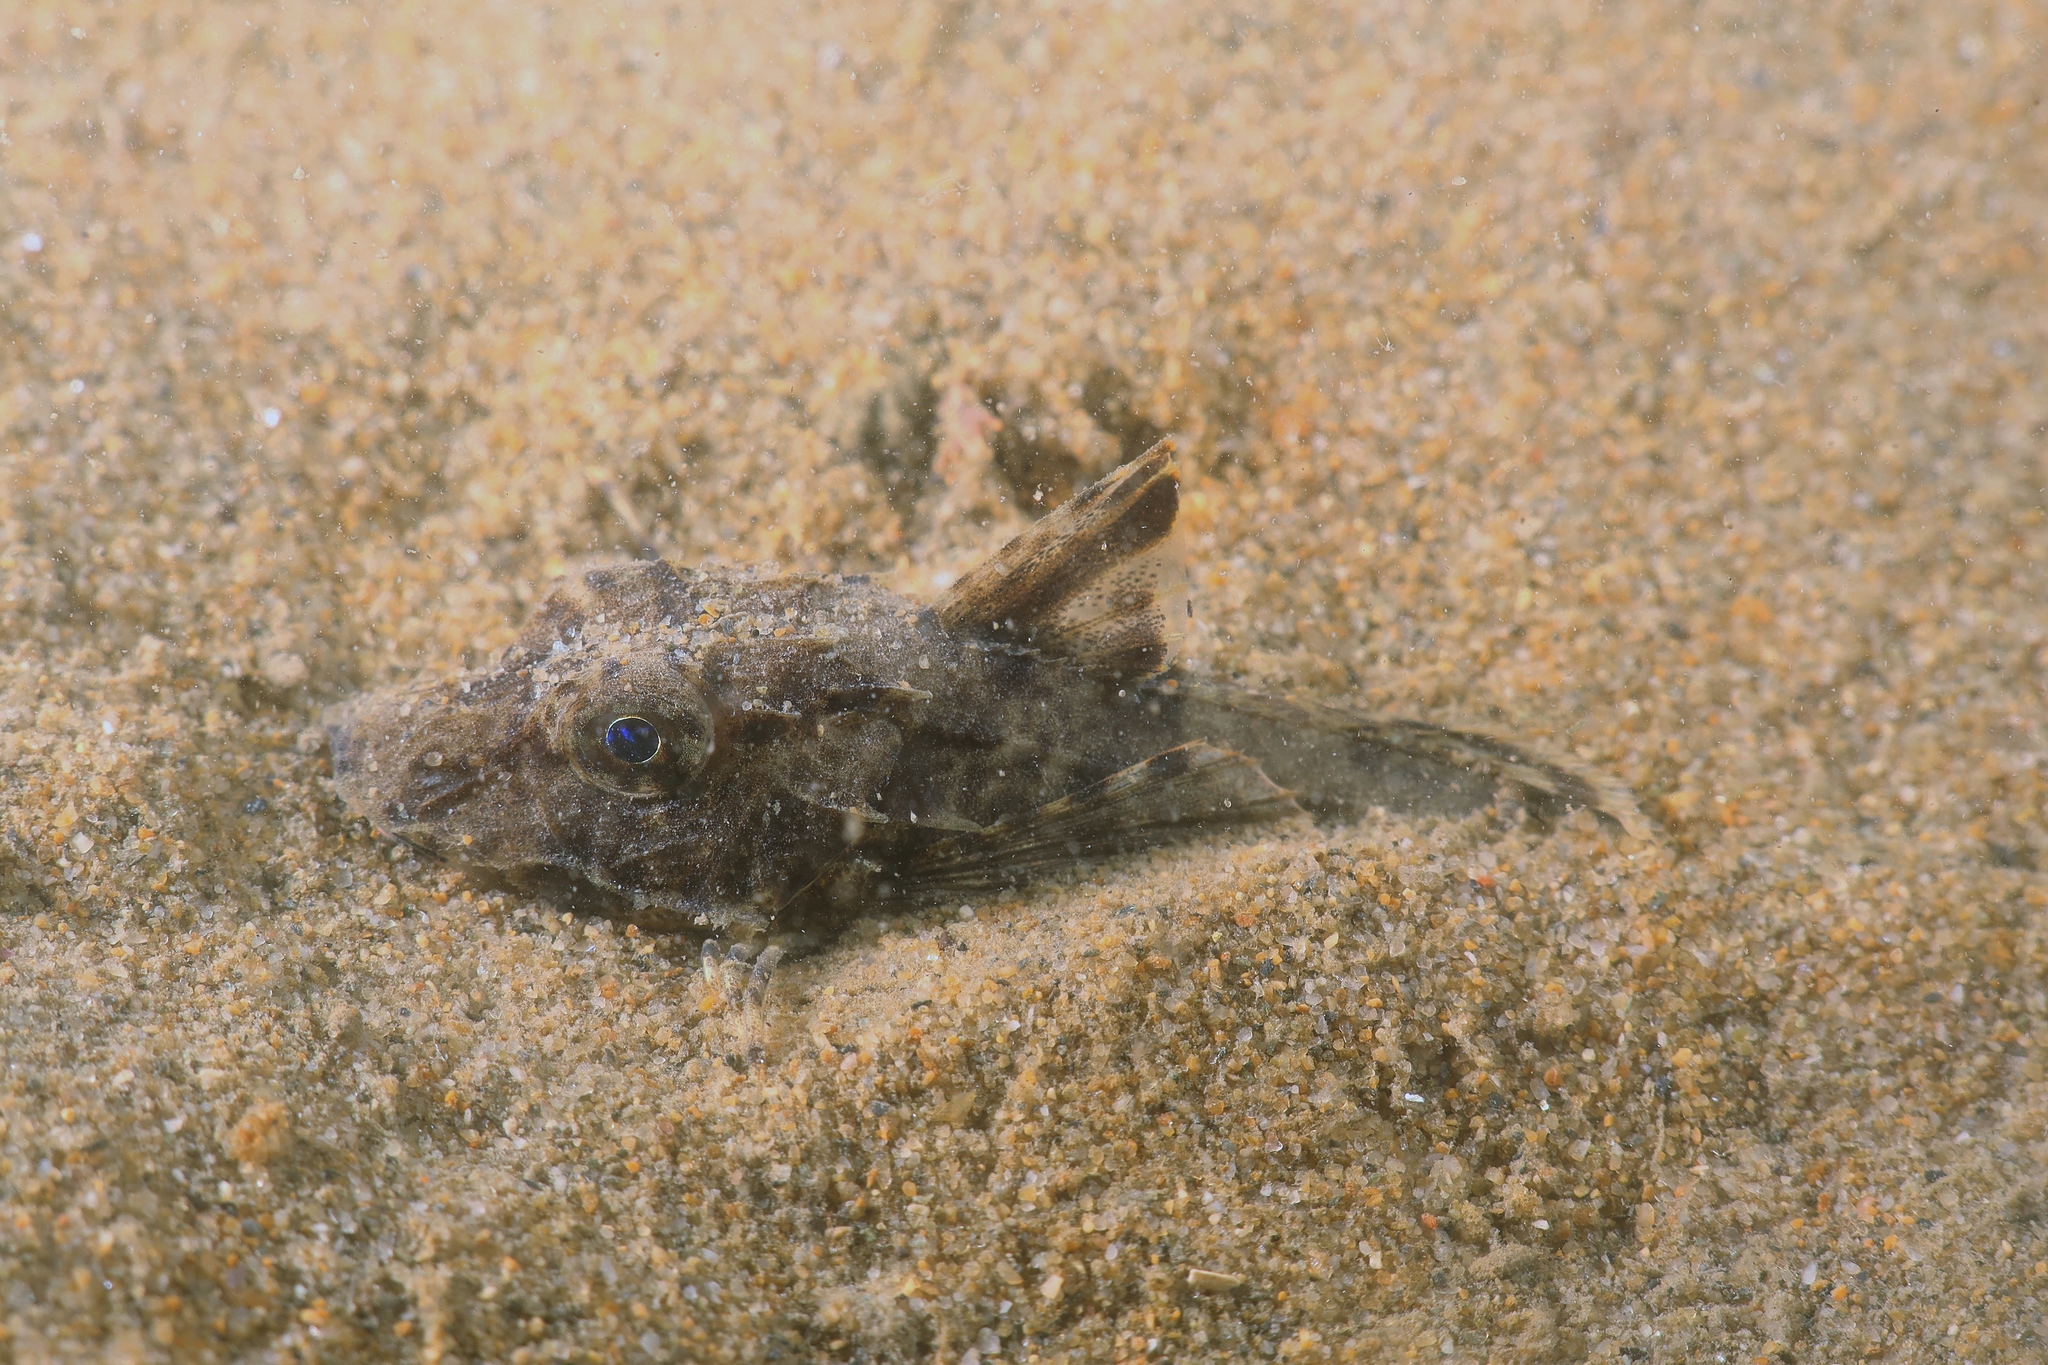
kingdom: Animalia
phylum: Chordata
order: Scorpaeniformes
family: Triglidae
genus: Chelidonichthys
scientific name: Chelidonichthys lucerna
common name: Tub gurnard
